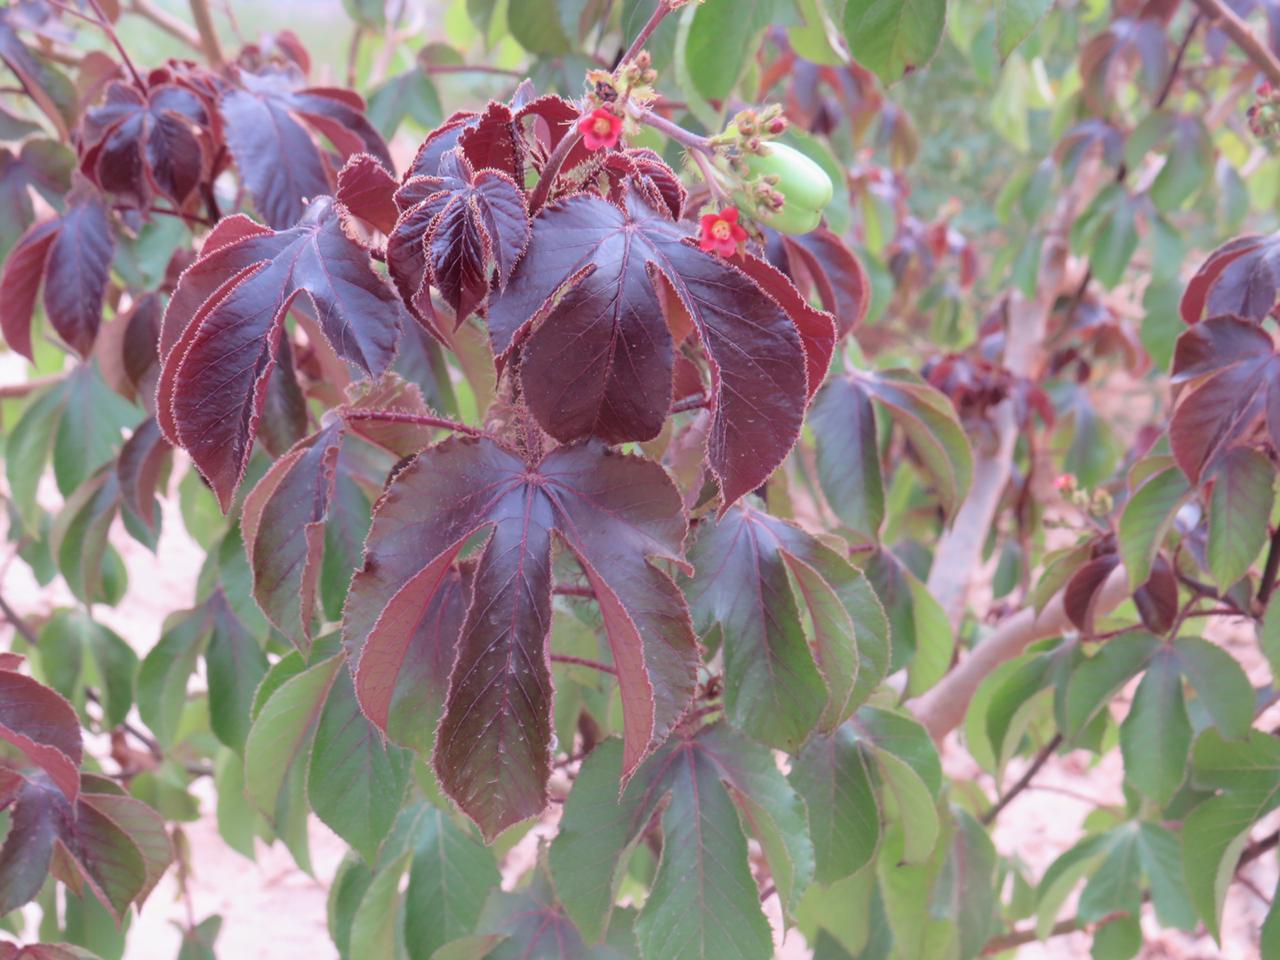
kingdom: Plantae
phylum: Tracheophyta
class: Magnoliopsida
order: Malpighiales
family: Euphorbiaceae
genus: Jatropha
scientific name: Jatropha gossypiifolia
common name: Bellyache bush
